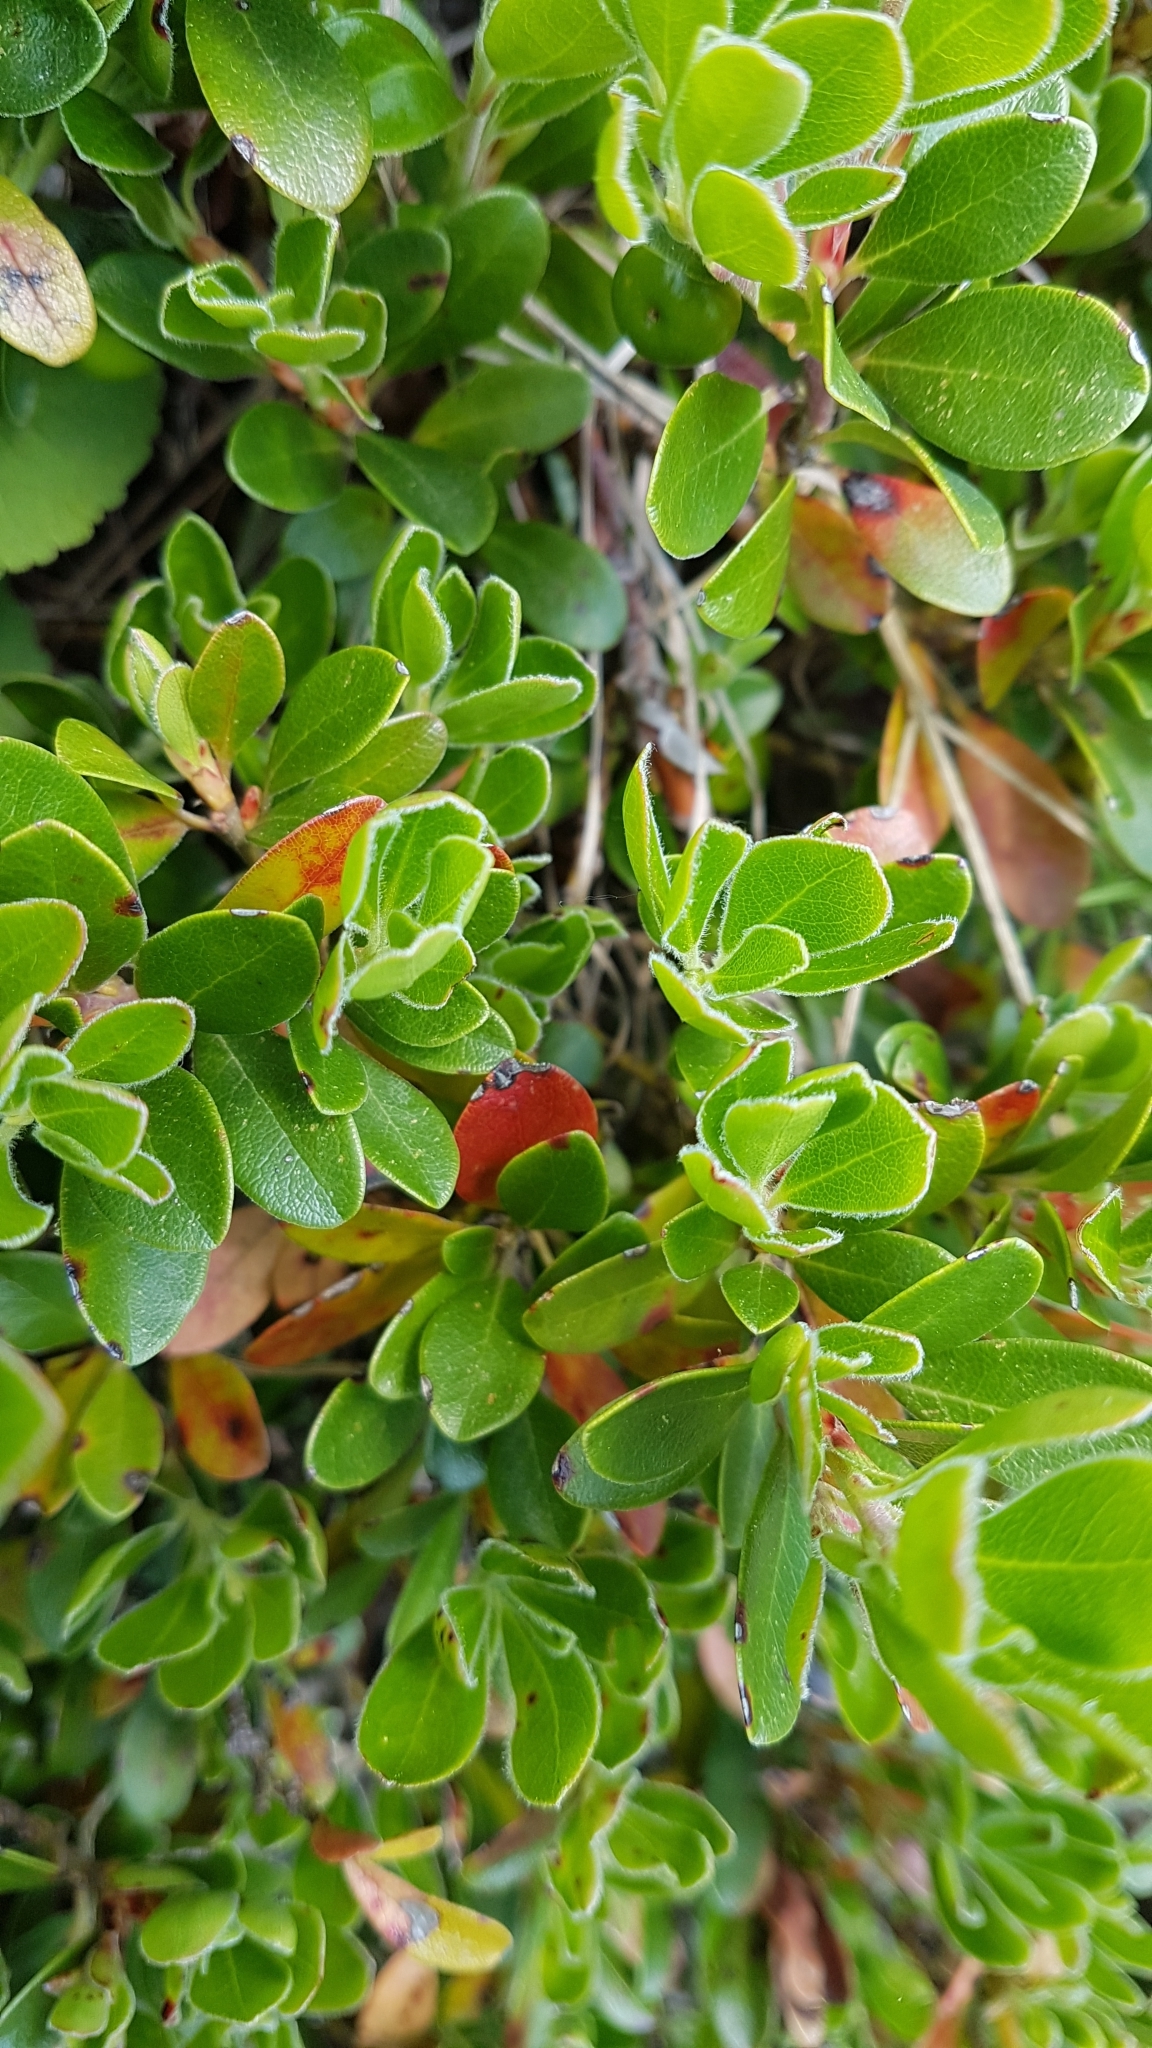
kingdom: Plantae
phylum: Tracheophyta
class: Magnoliopsida
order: Ericales
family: Ericaceae
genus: Arctostaphylos
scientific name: Arctostaphylos uva-ursi
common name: Bearberry
